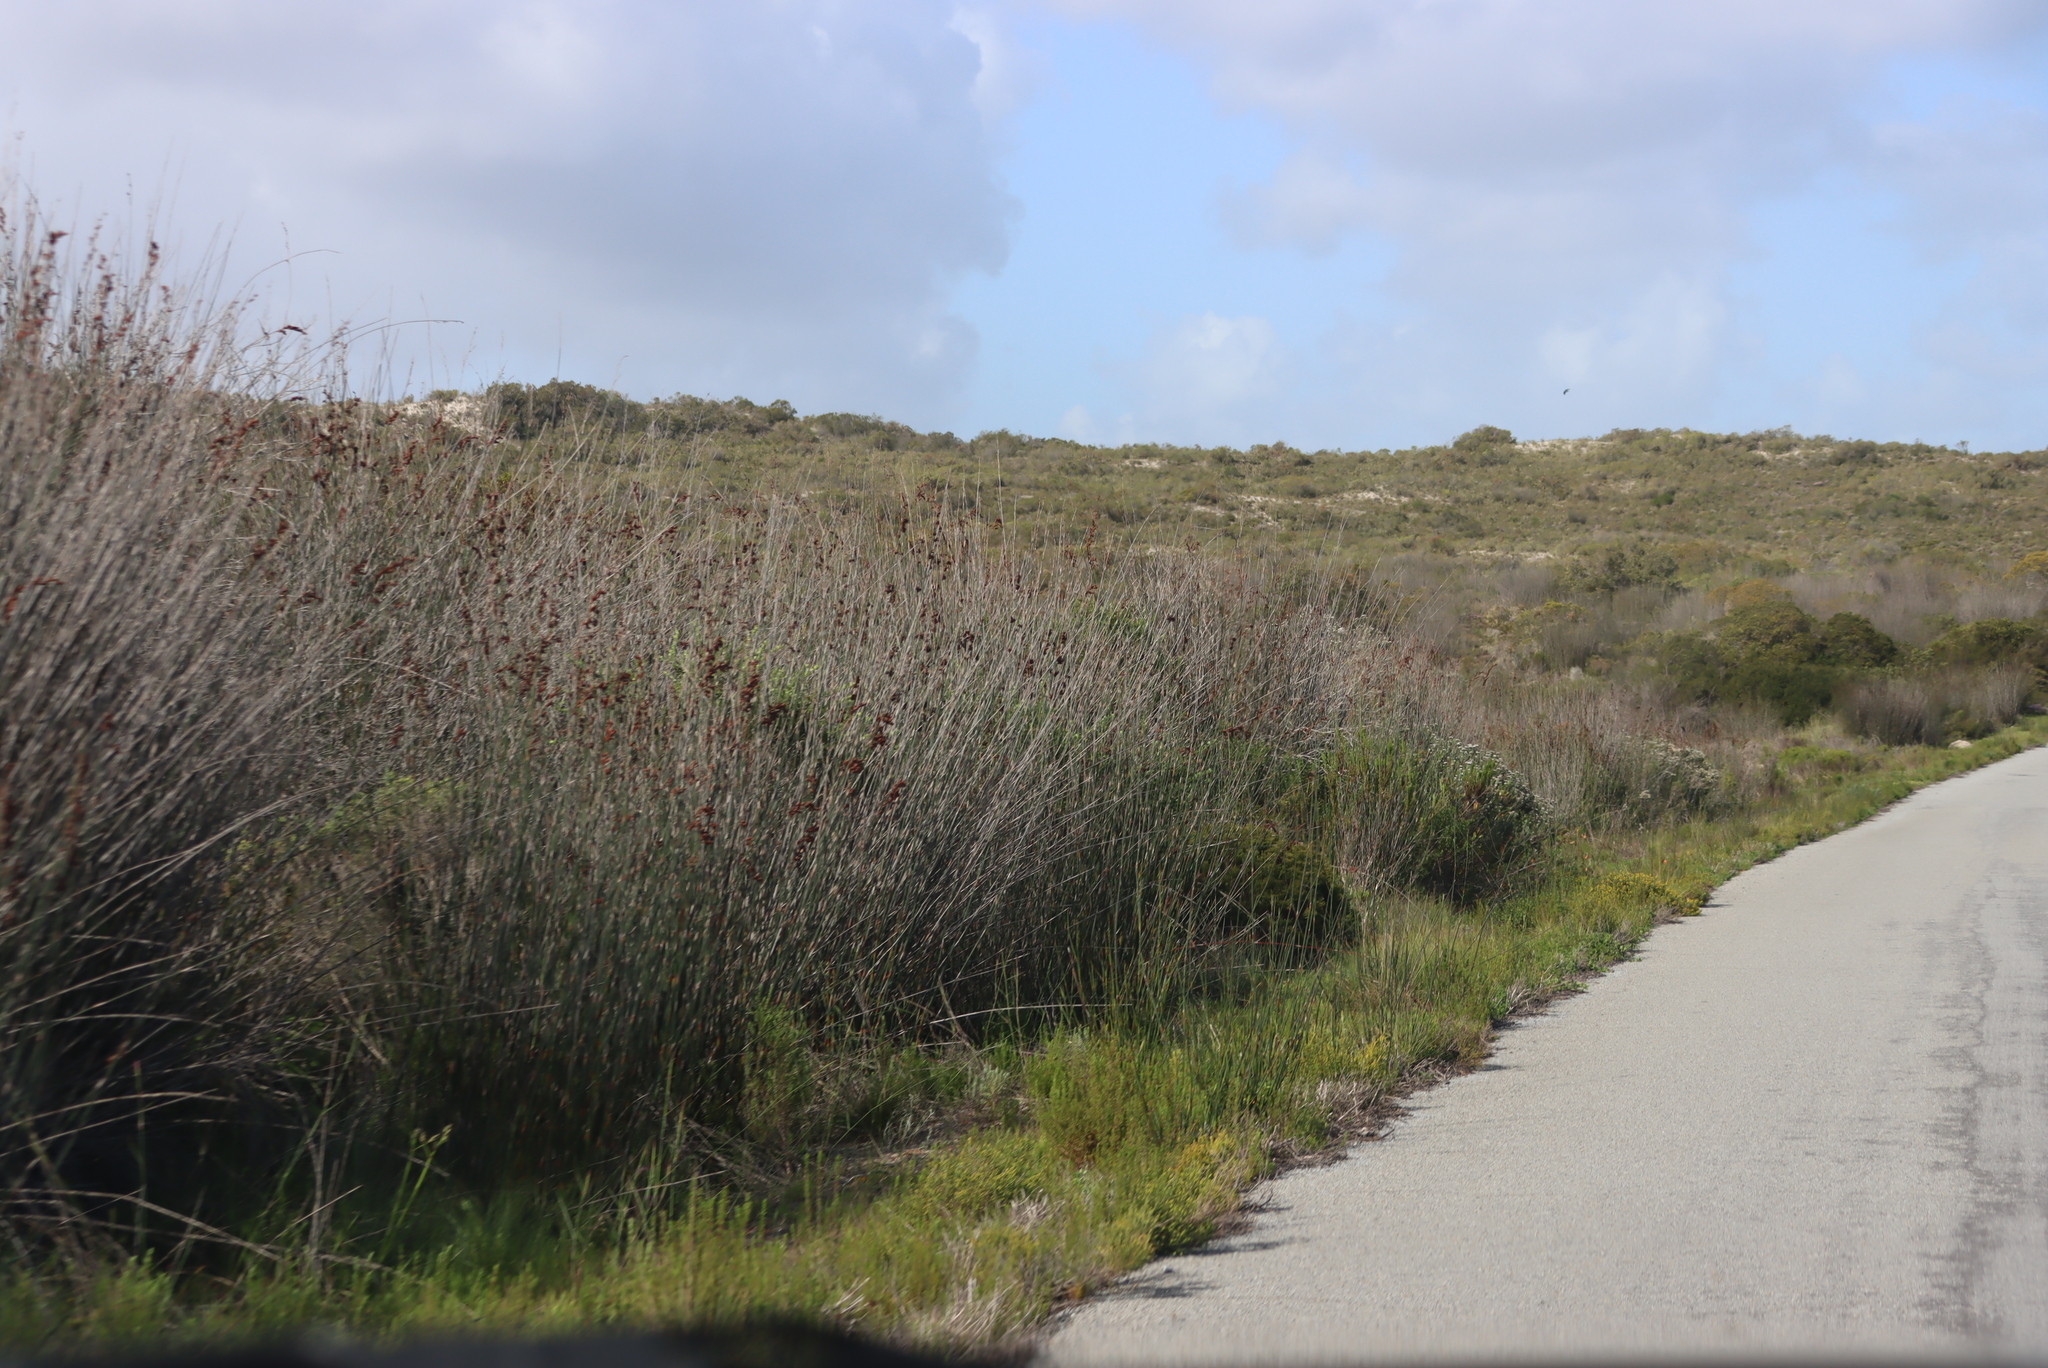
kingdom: Plantae
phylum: Tracheophyta
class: Liliopsida
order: Poales
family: Restionaceae
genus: Thamnochortus
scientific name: Thamnochortus spicigerus
